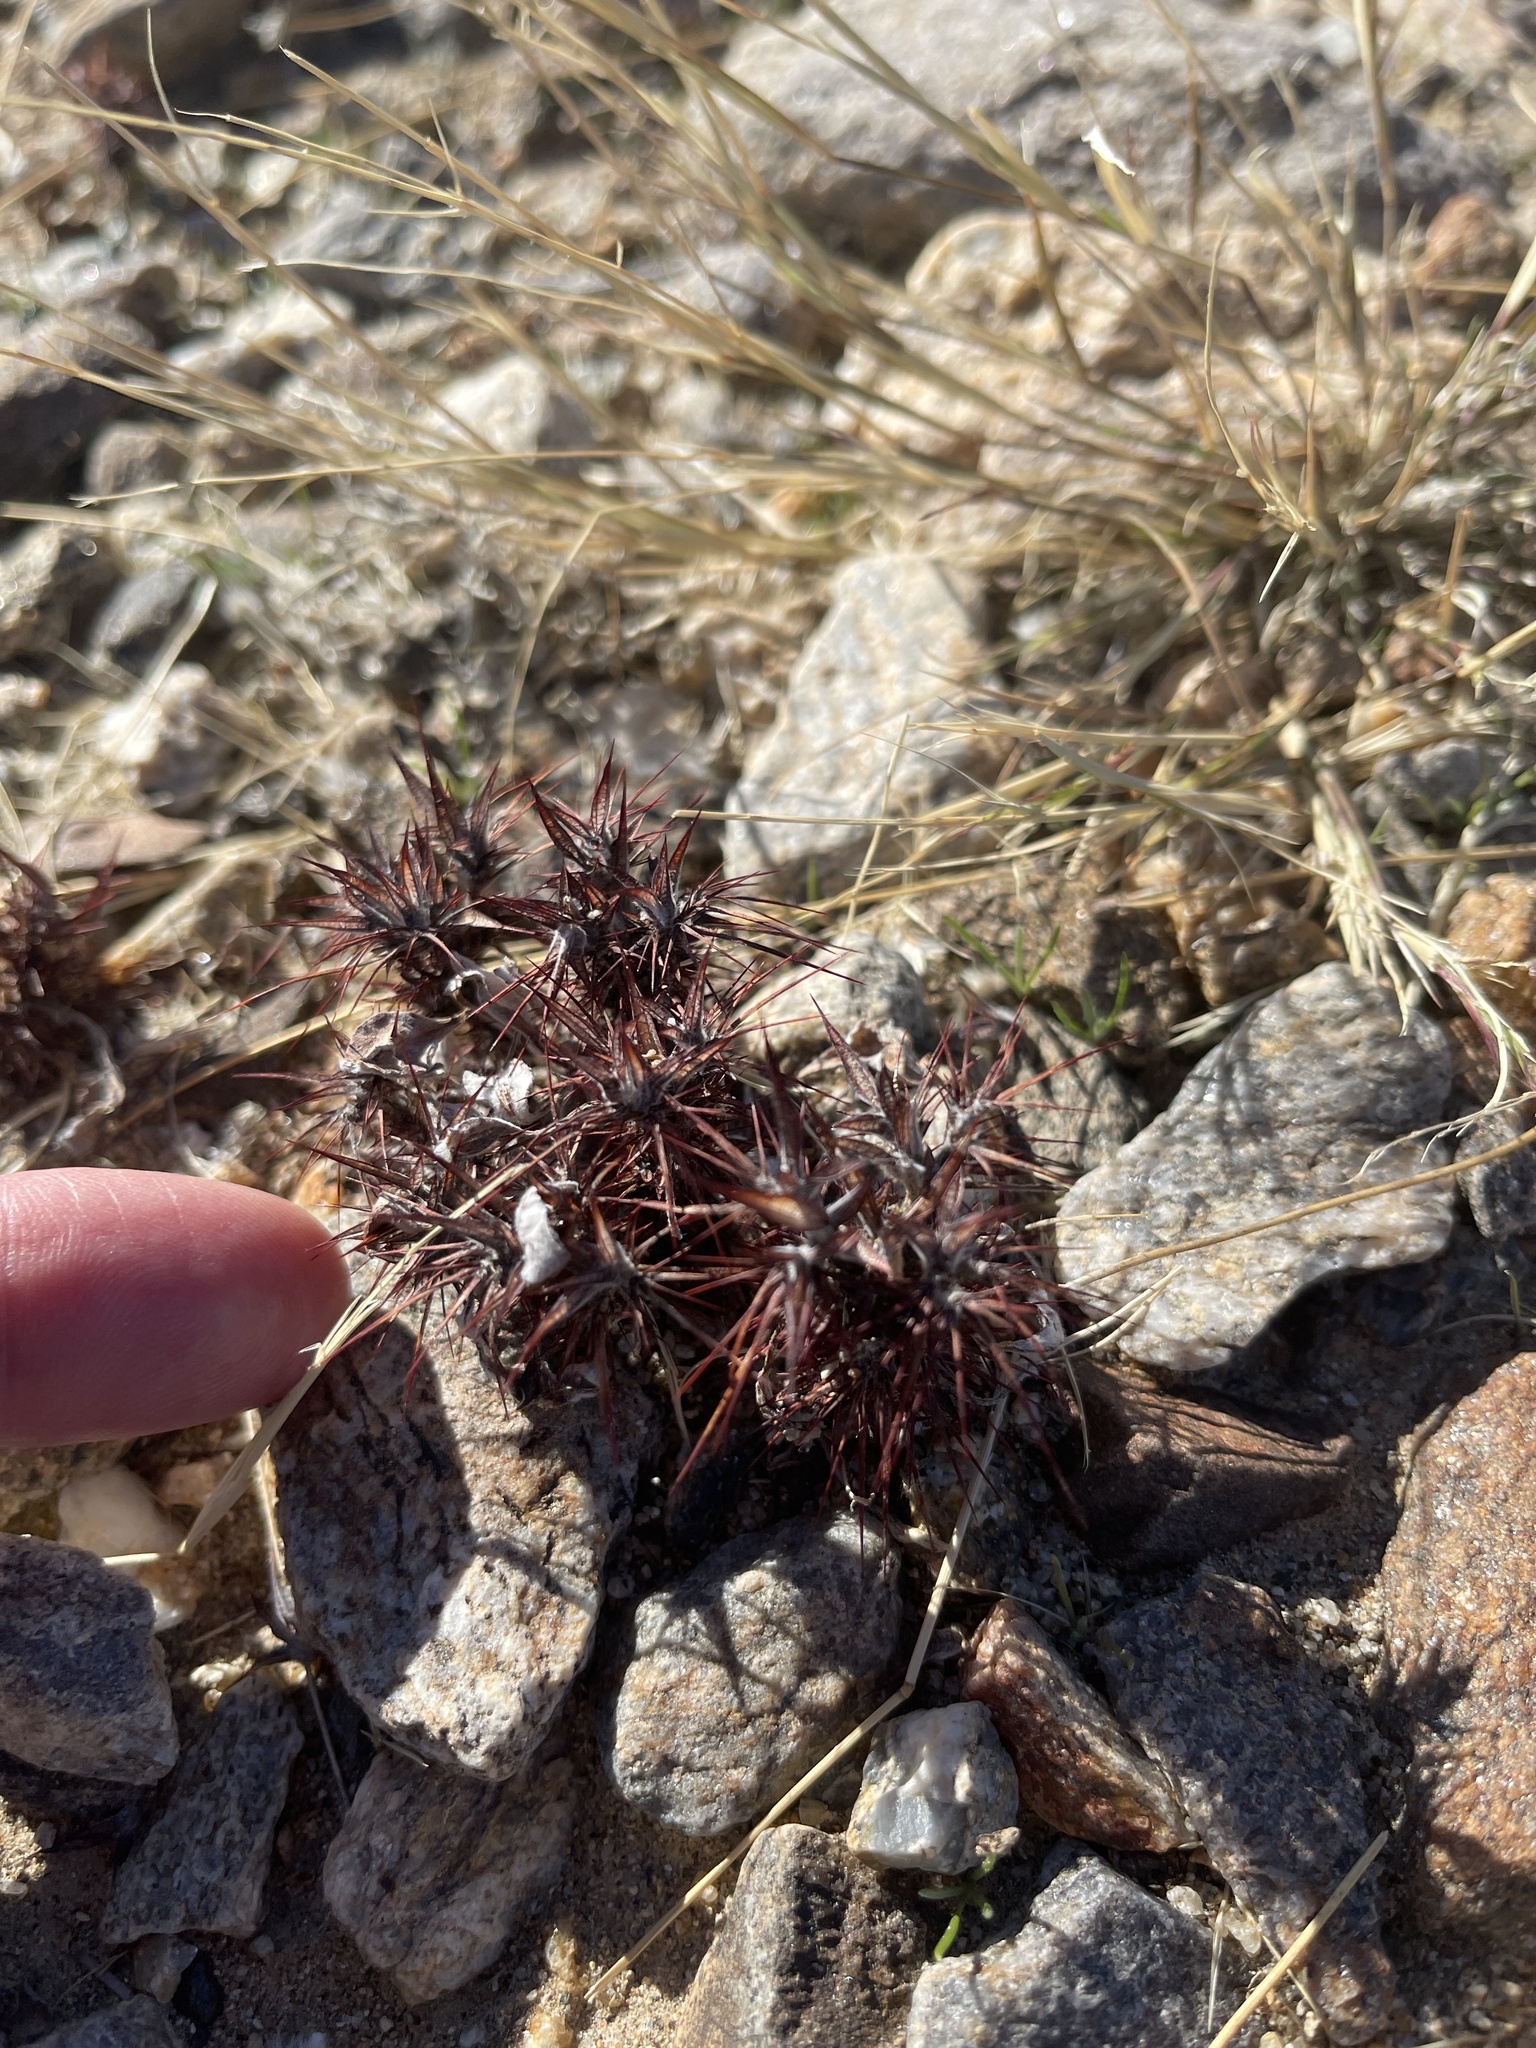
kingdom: Plantae
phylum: Tracheophyta
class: Magnoliopsida
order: Caryophyllales
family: Polygonaceae
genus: Chorizanthe
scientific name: Chorizanthe rigida
